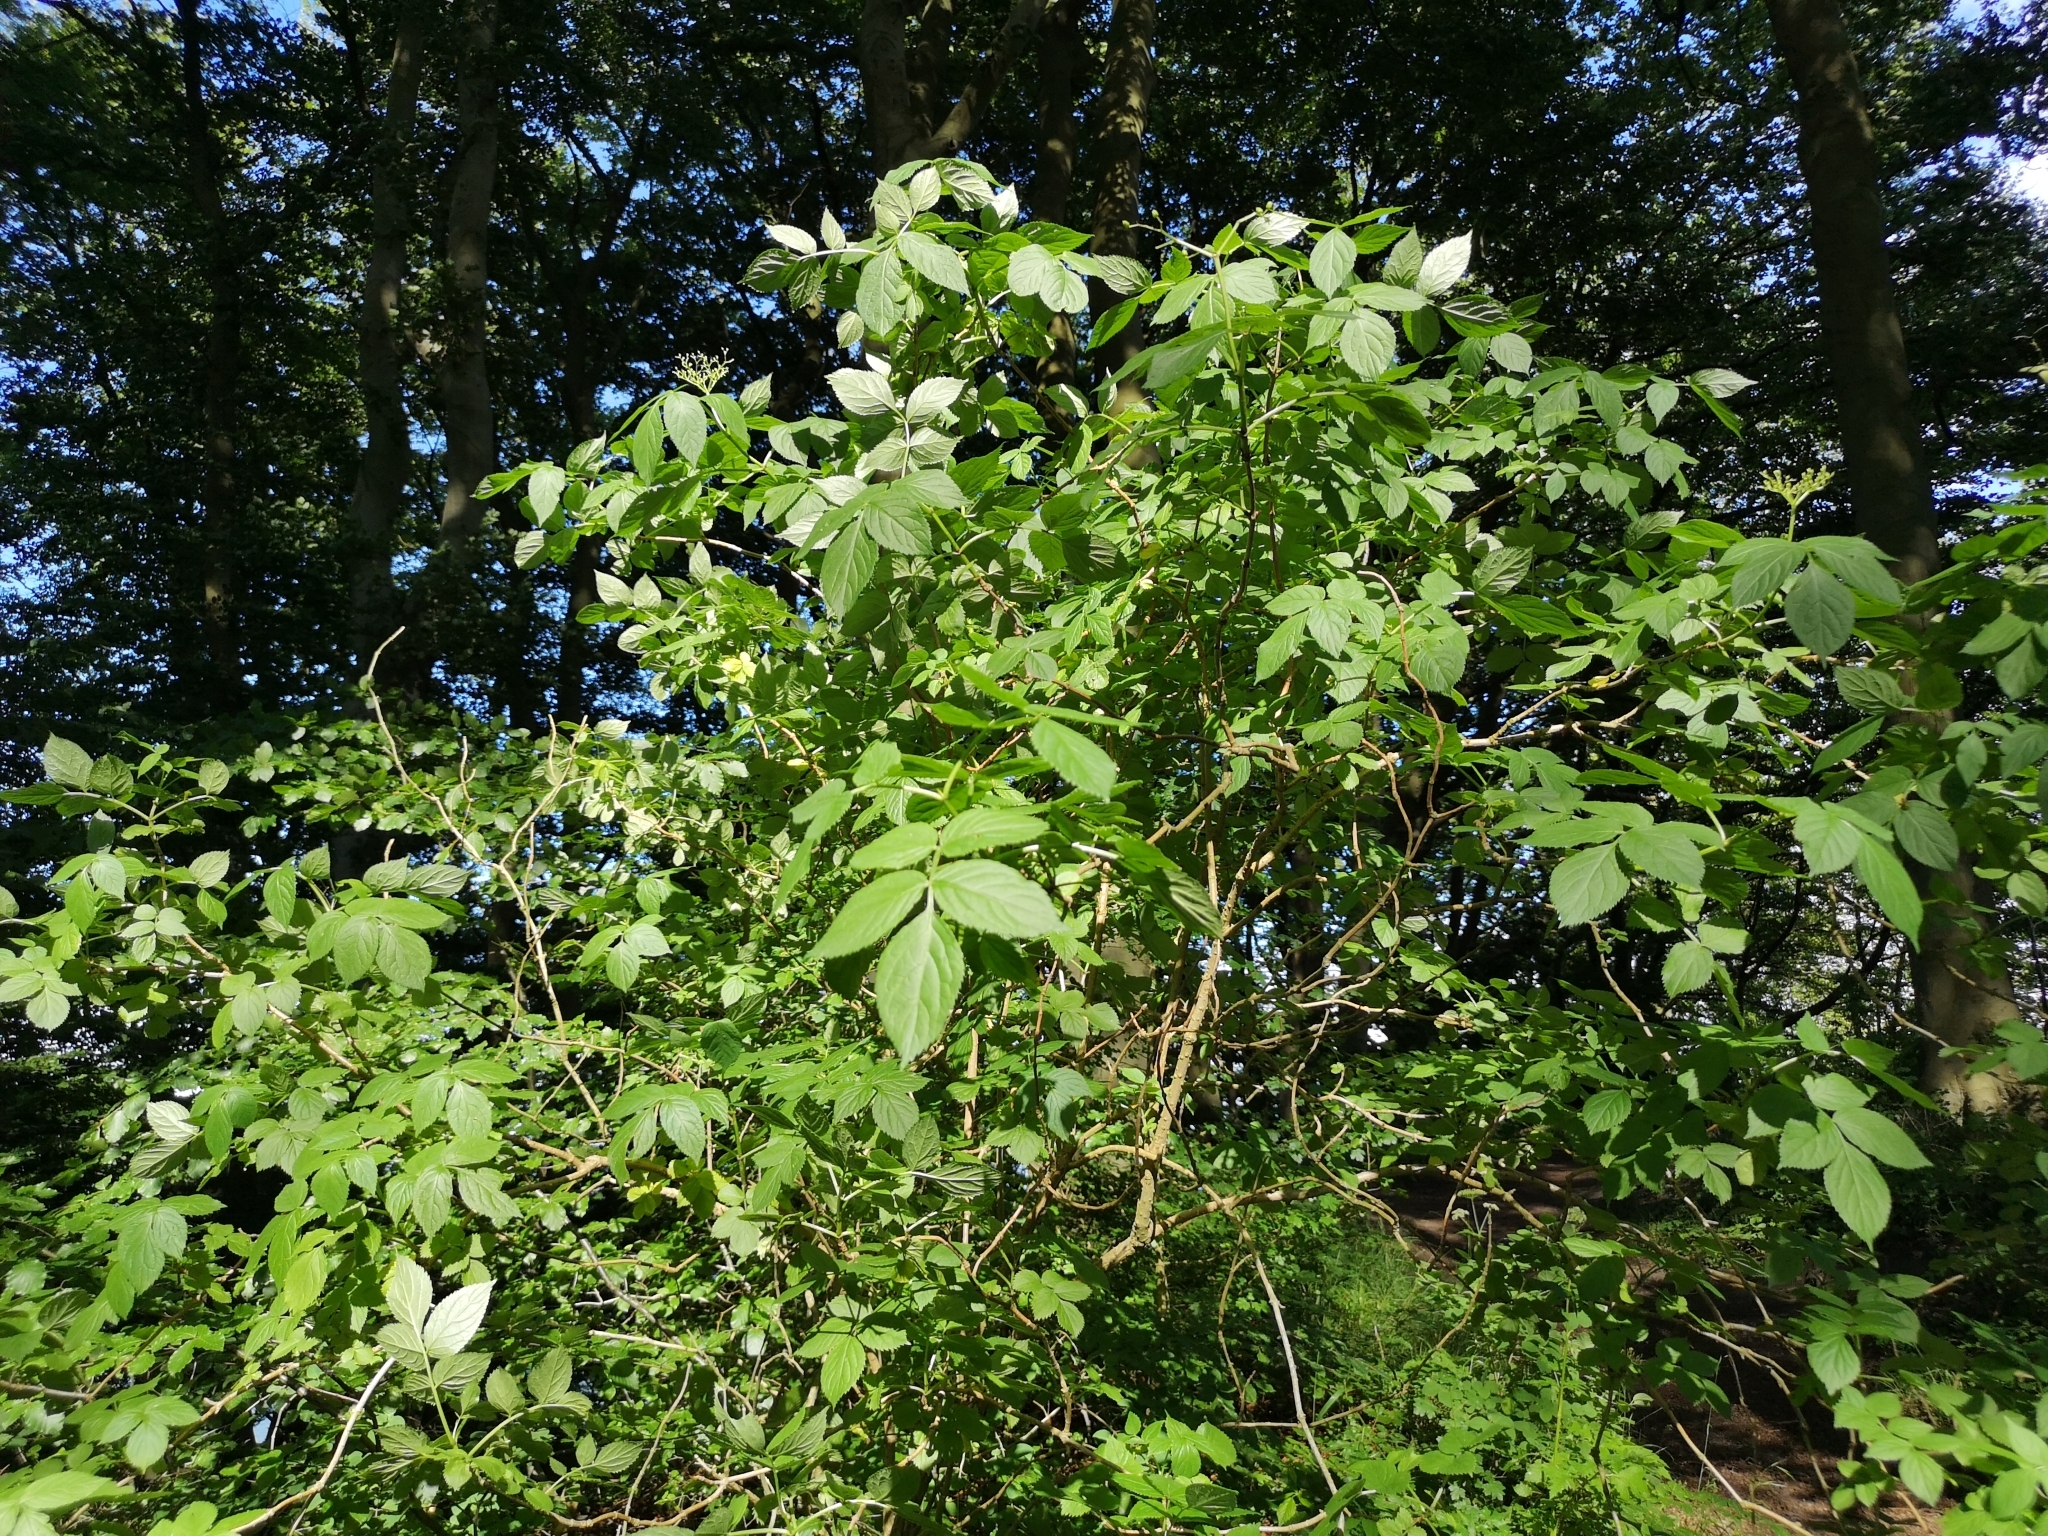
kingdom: Plantae
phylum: Tracheophyta
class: Magnoliopsida
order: Dipsacales
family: Viburnaceae
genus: Sambucus
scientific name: Sambucus nigra
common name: Elder
